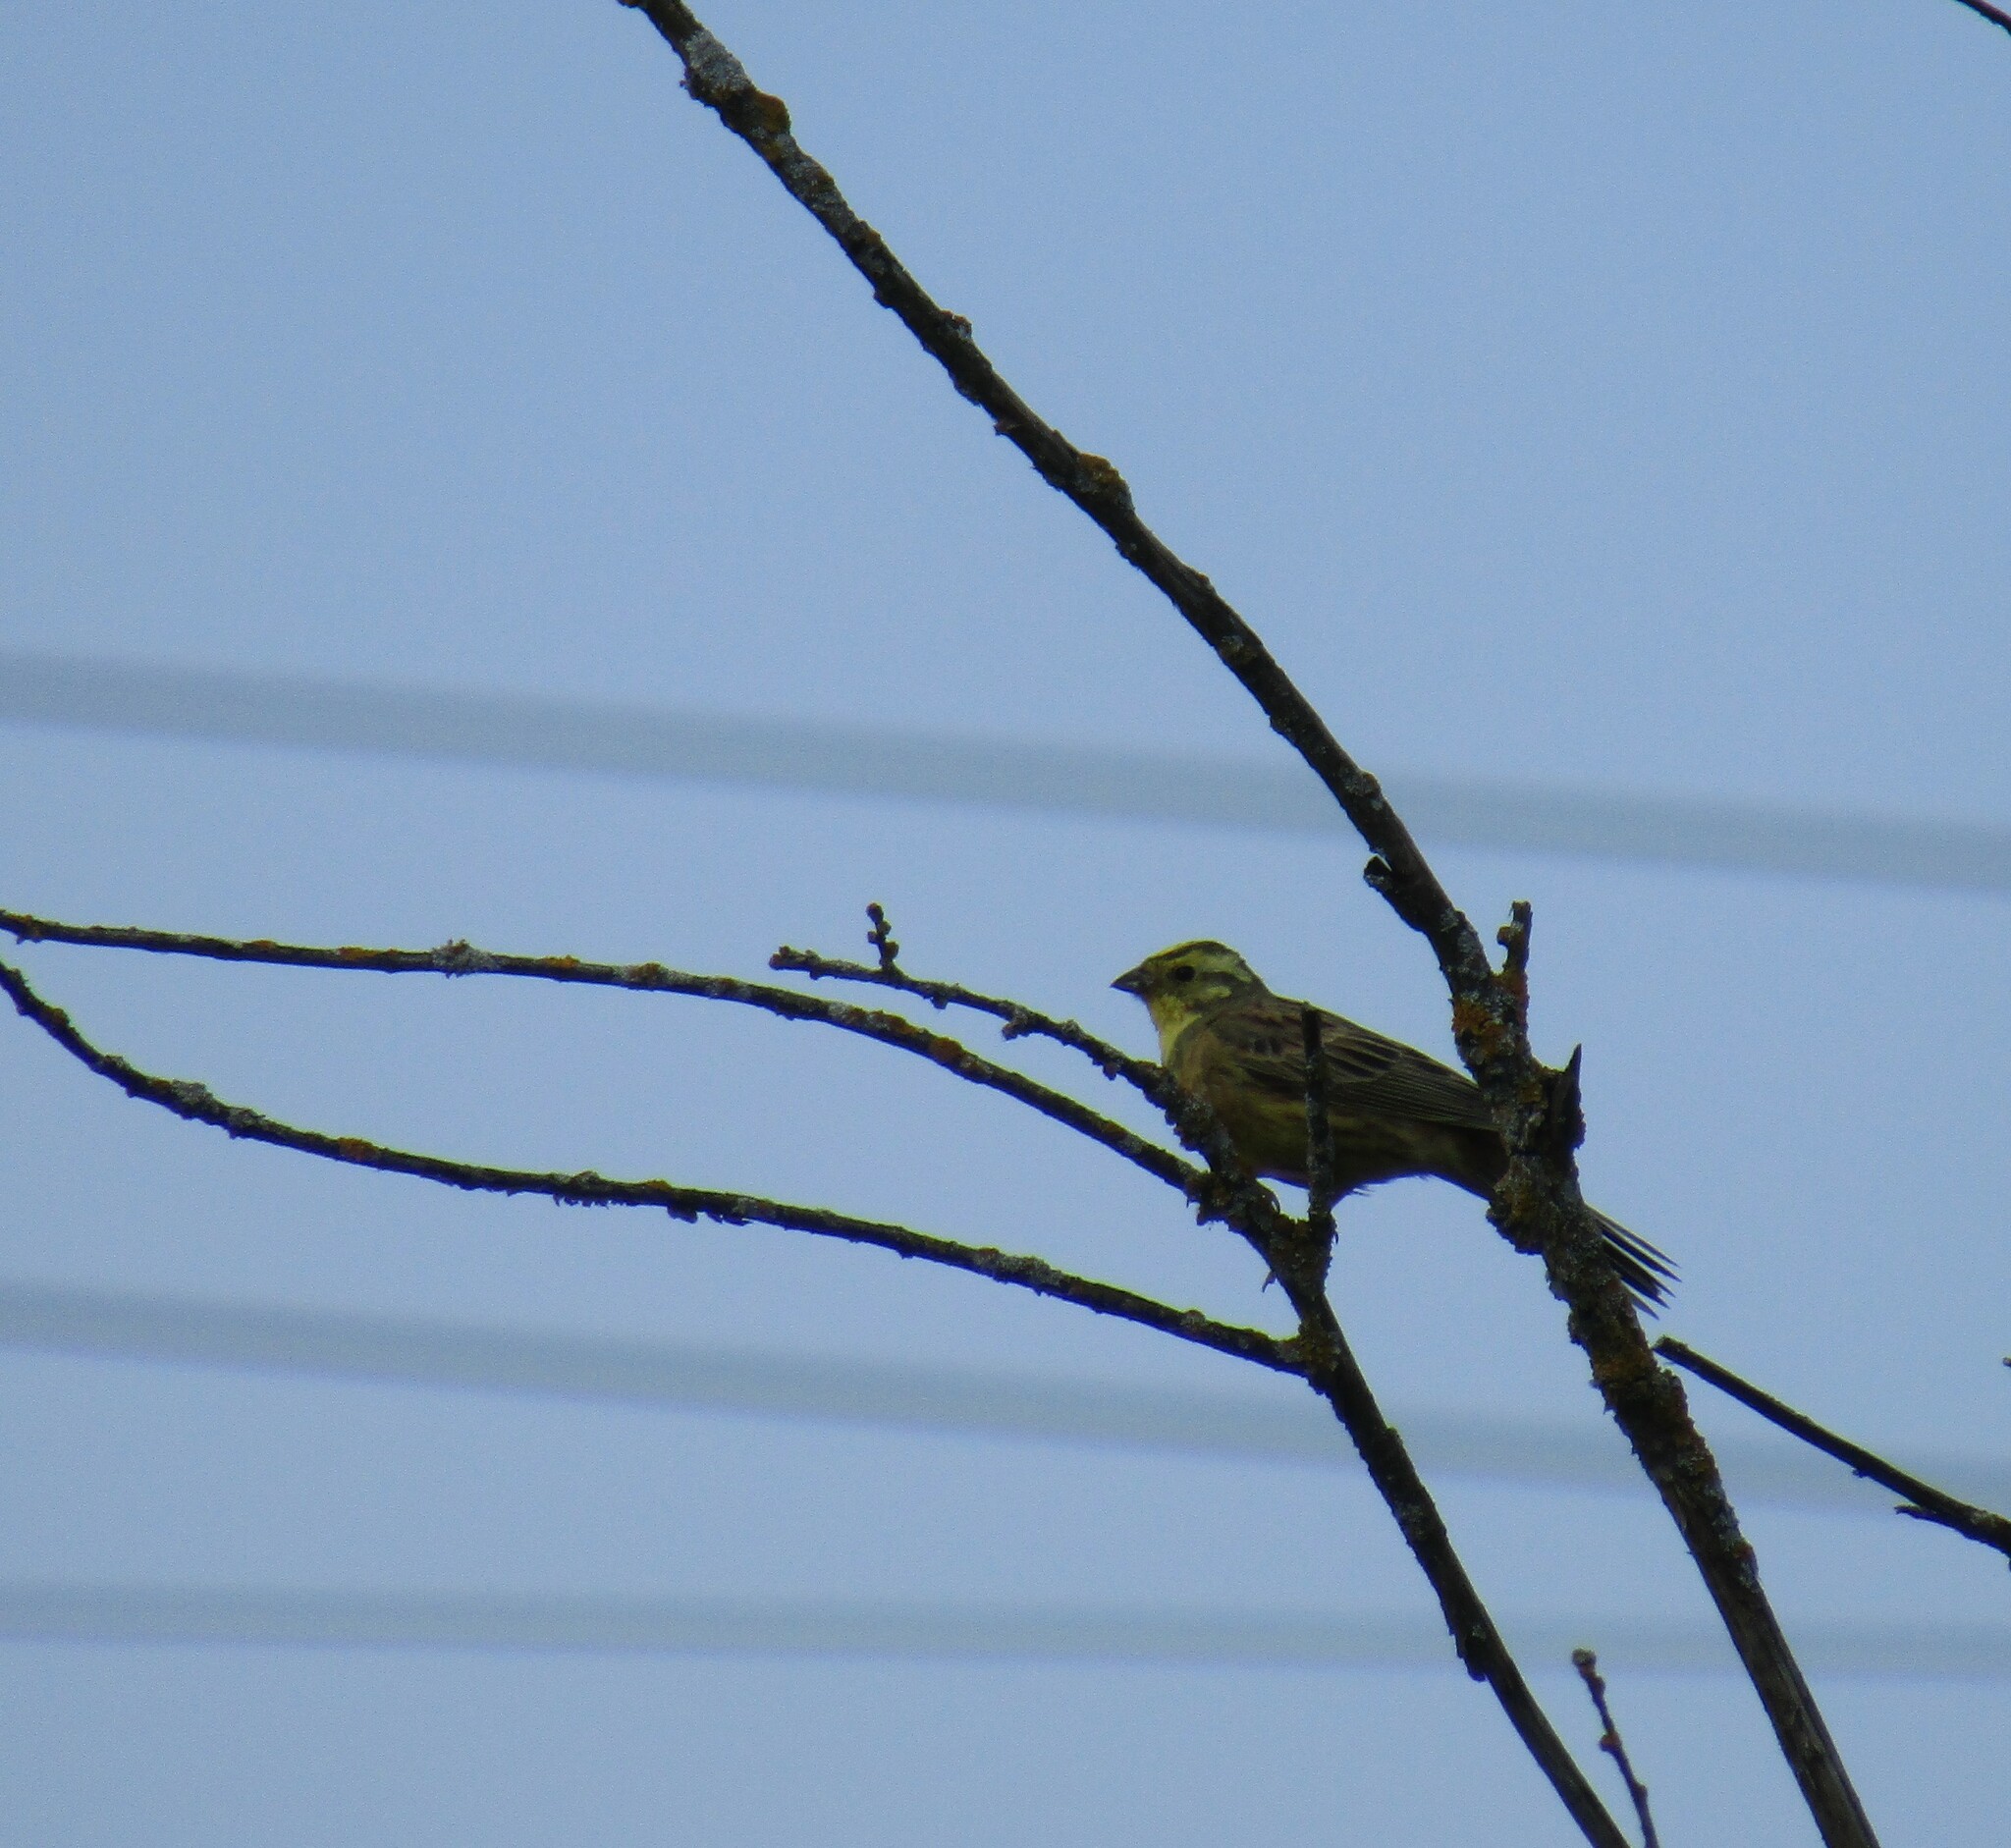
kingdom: Animalia
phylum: Chordata
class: Aves
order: Passeriformes
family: Emberizidae
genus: Emberiza
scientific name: Emberiza citrinella
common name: Yellowhammer
